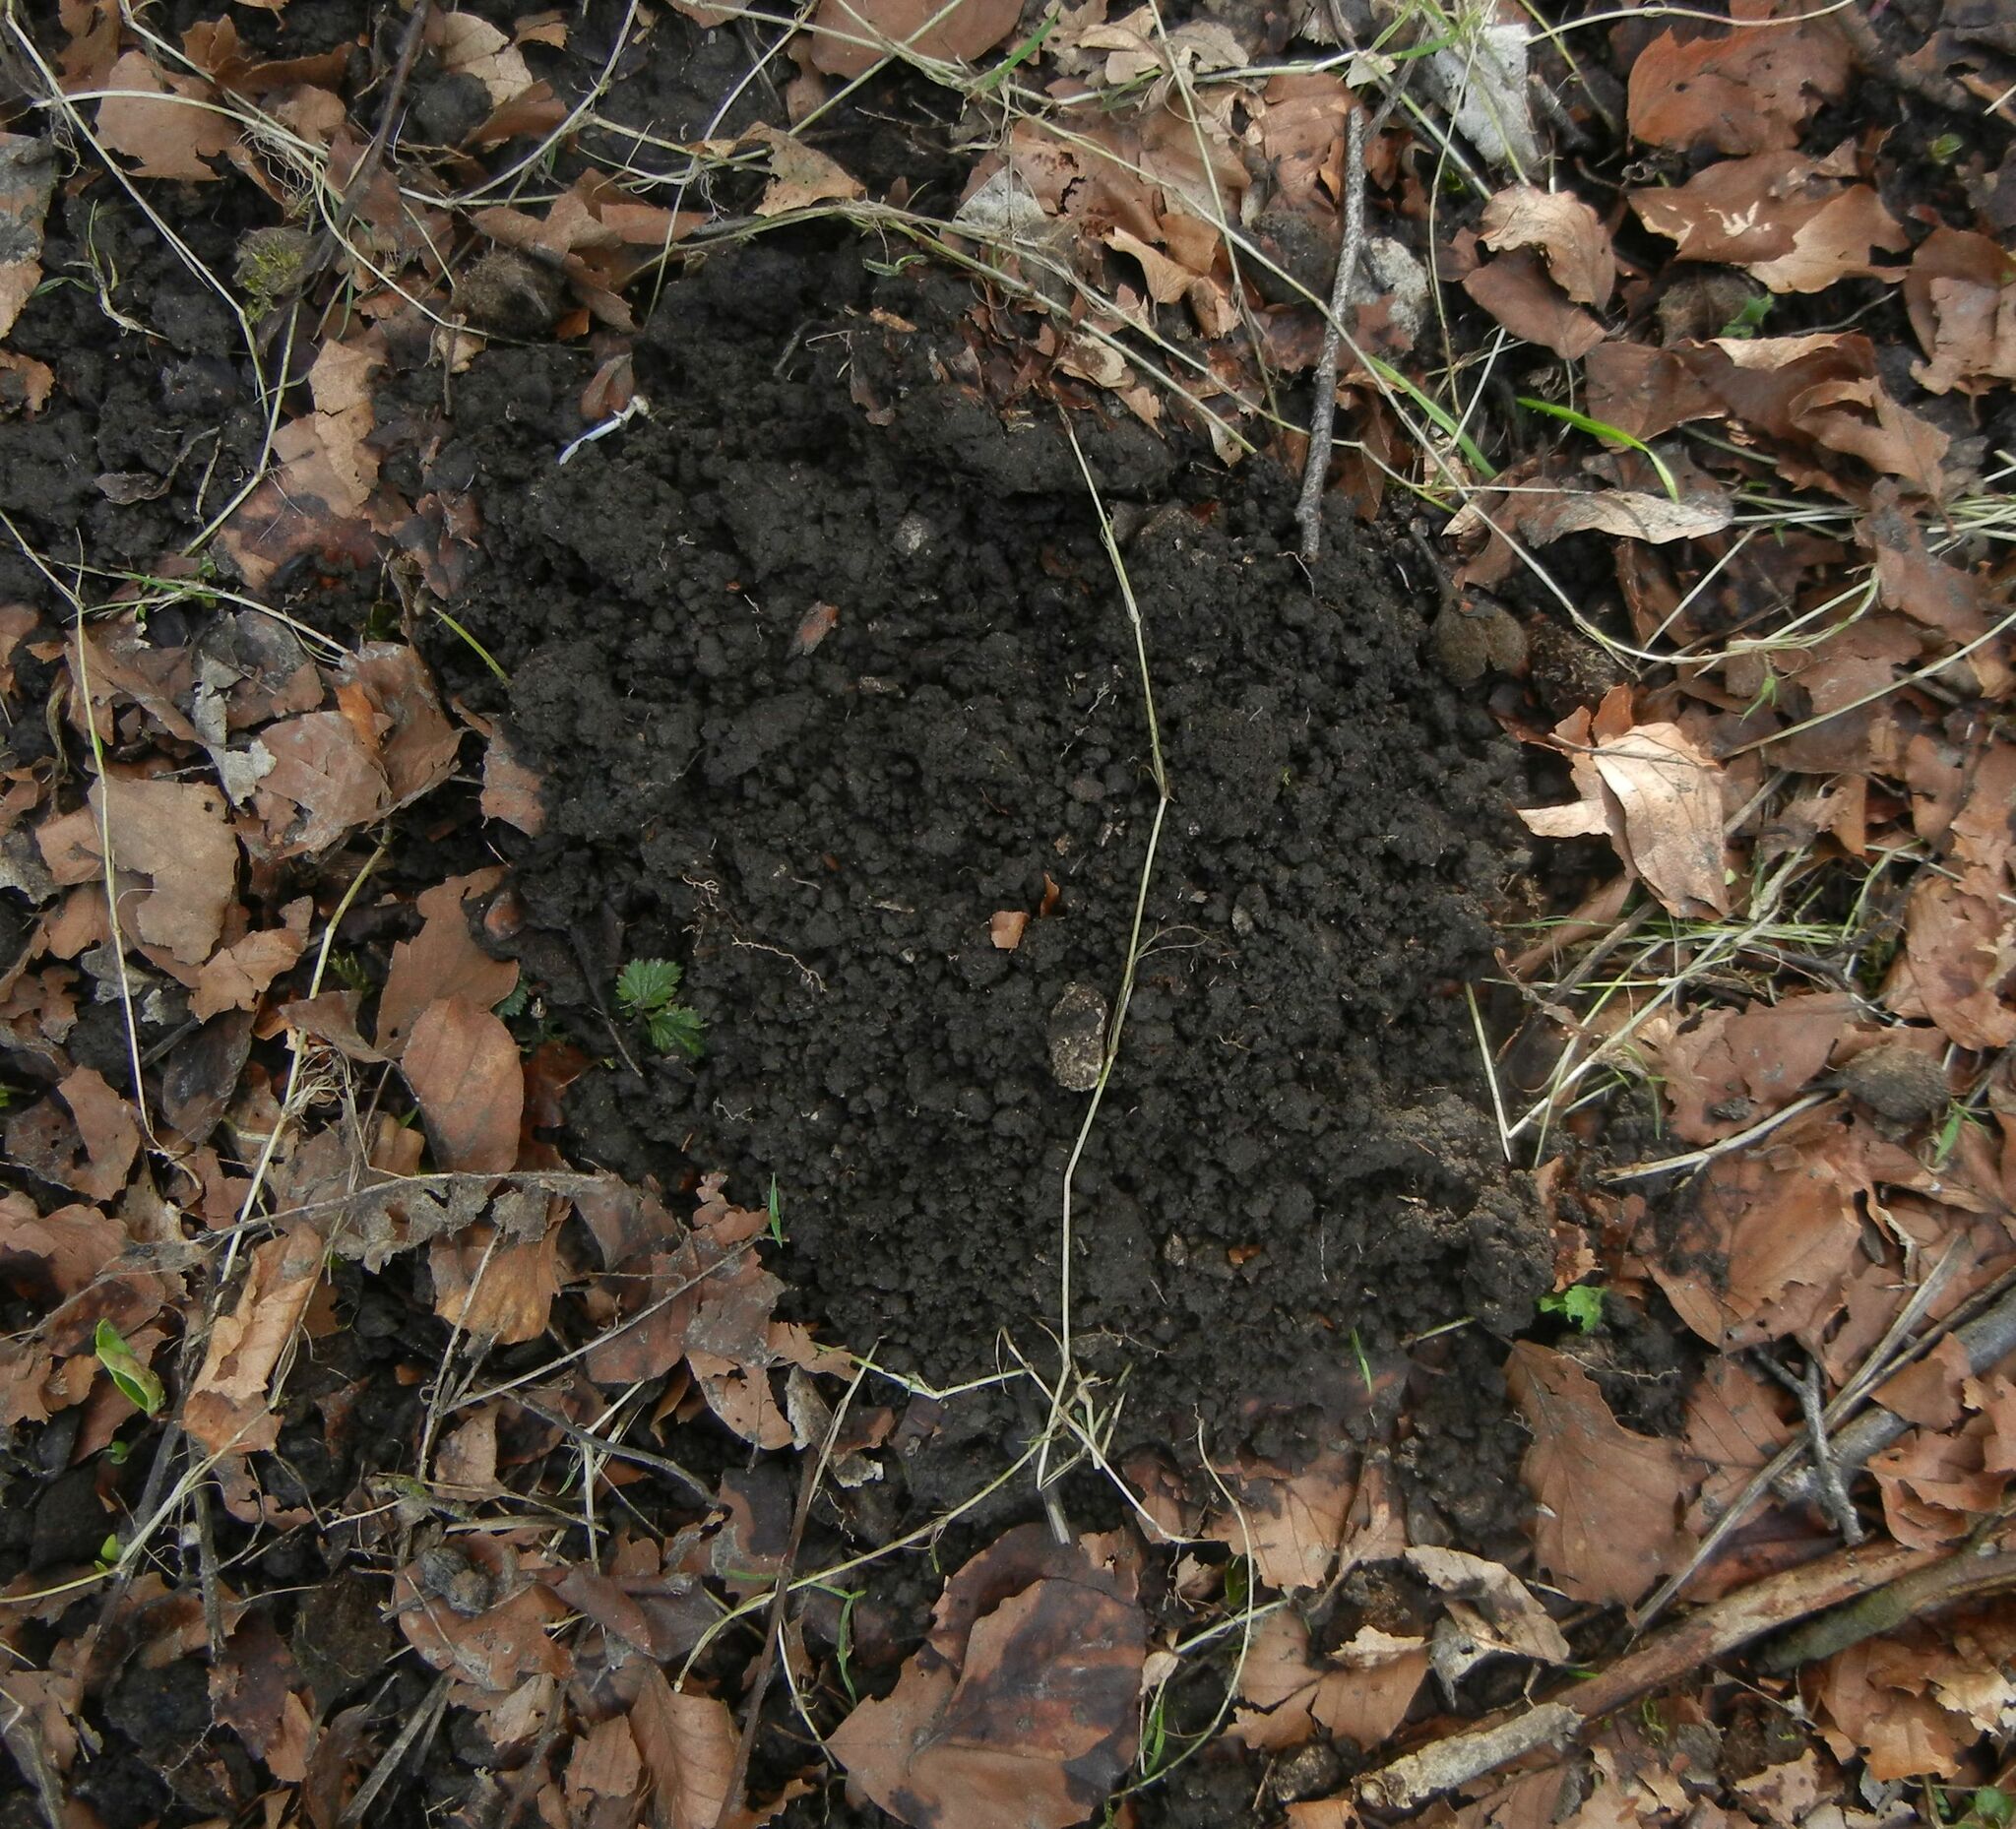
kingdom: Animalia
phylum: Chordata
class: Mammalia
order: Soricomorpha
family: Talpidae
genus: Talpa
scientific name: Talpa europaea
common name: European mole
